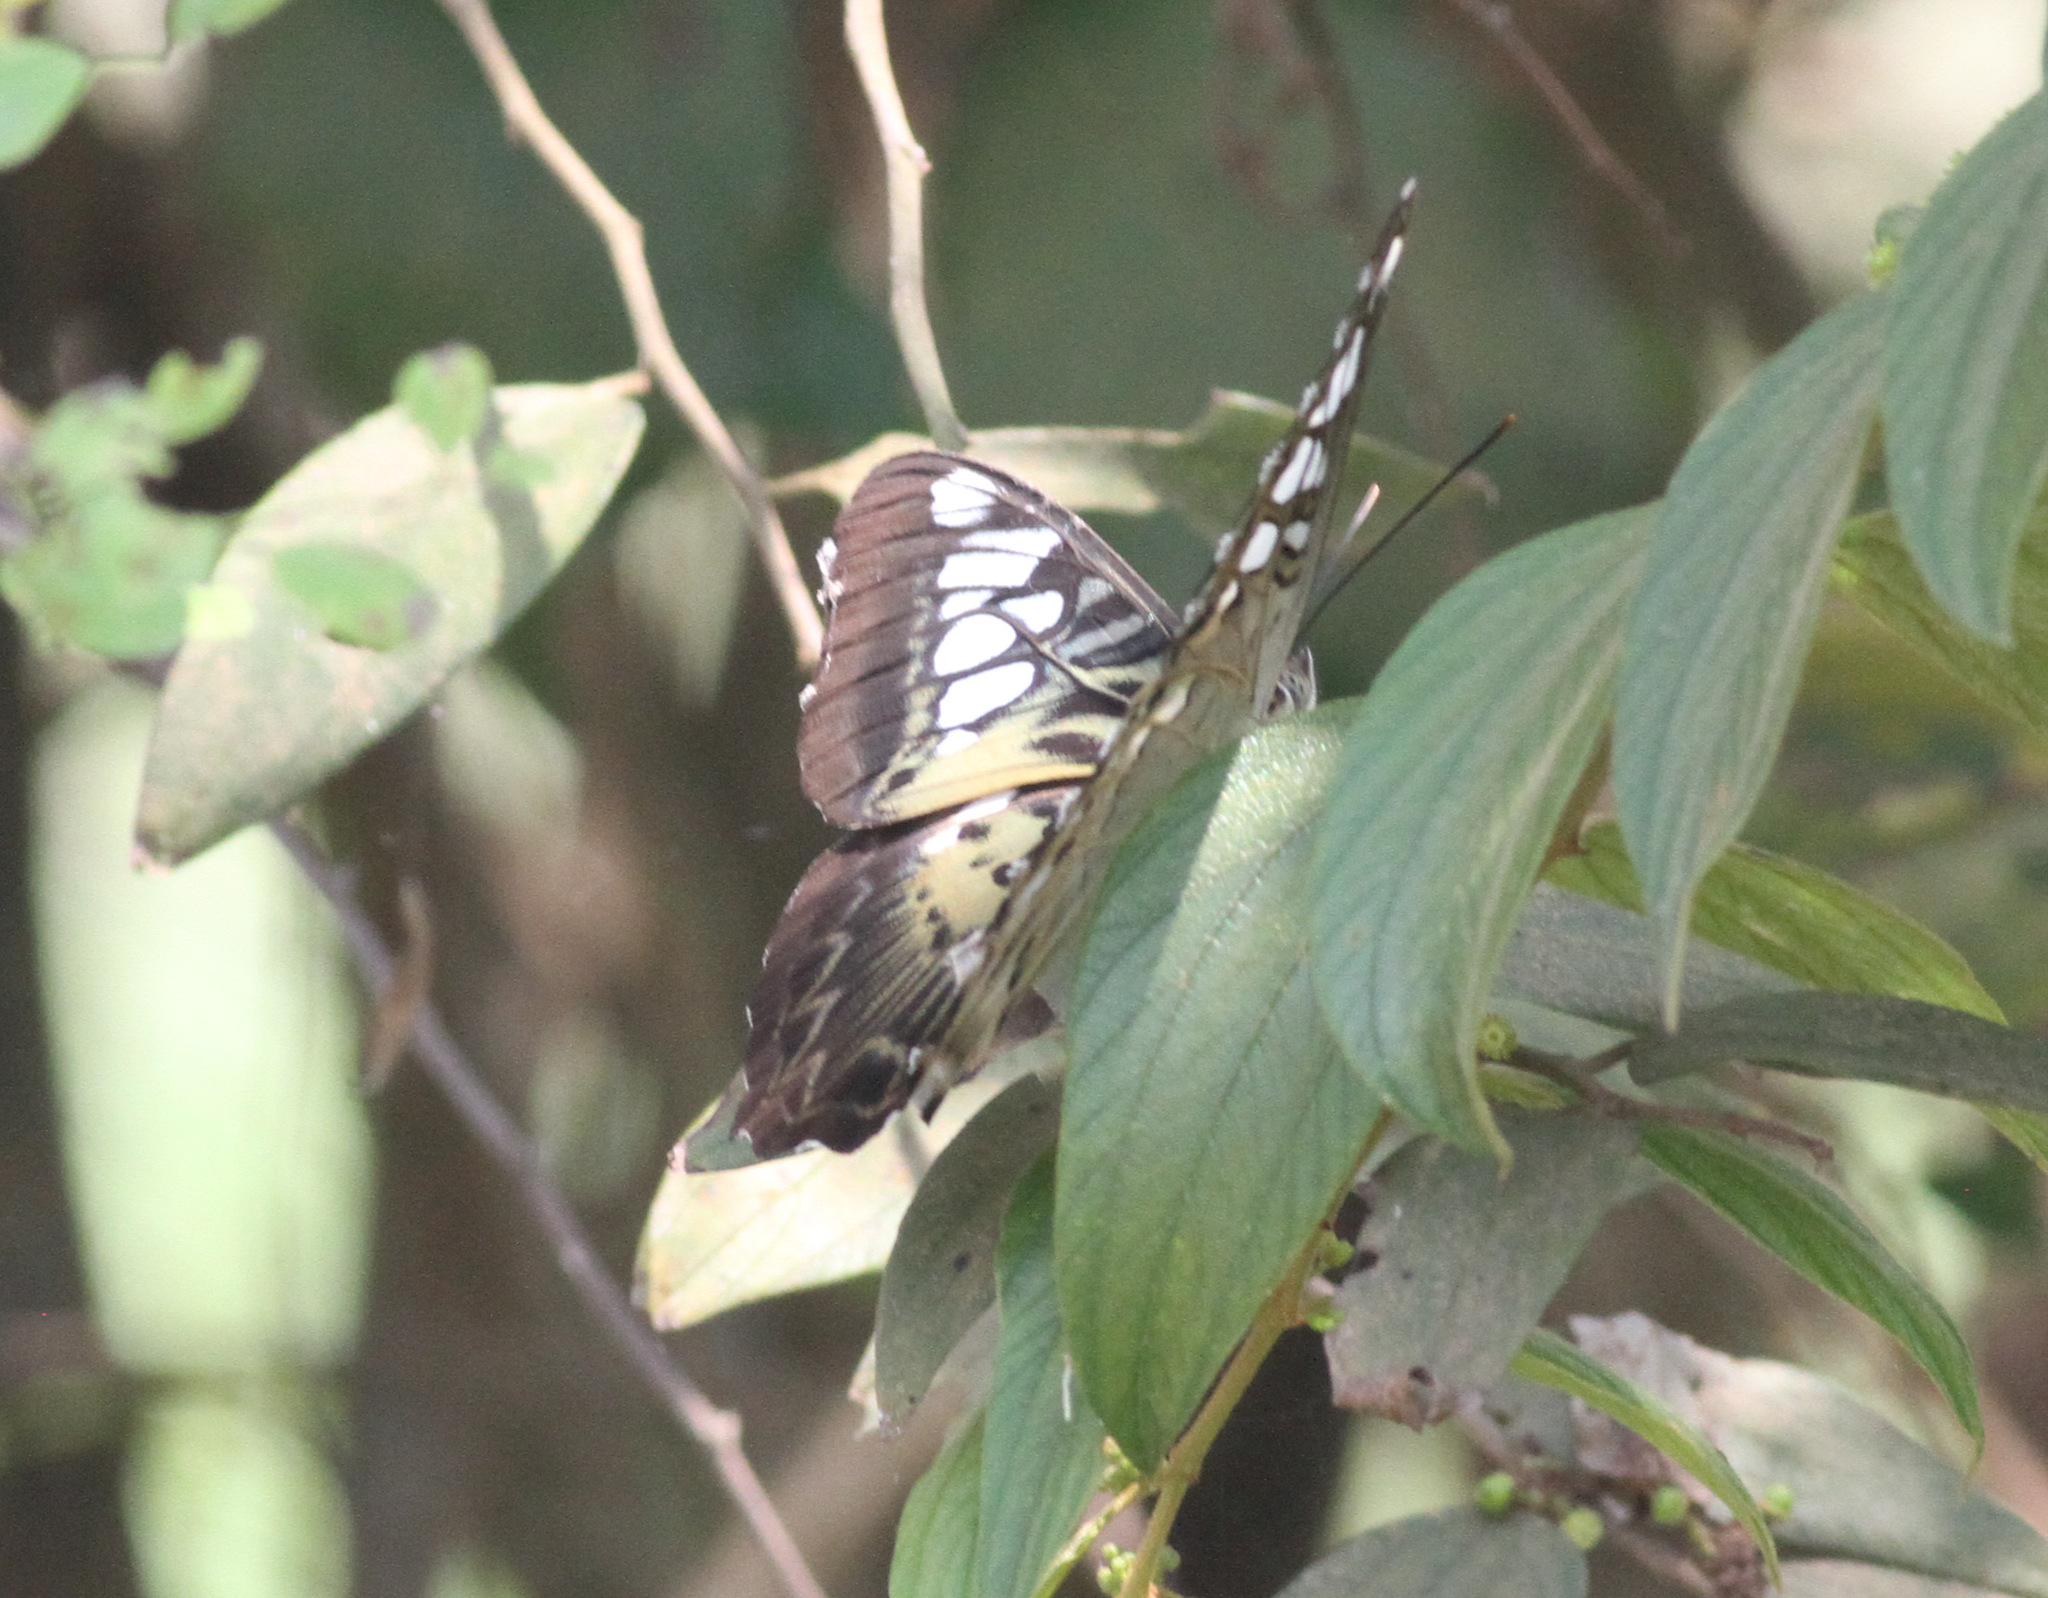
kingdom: Animalia
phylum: Arthropoda
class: Insecta
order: Lepidoptera
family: Nymphalidae
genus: Kallima
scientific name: Kallima sylvia
